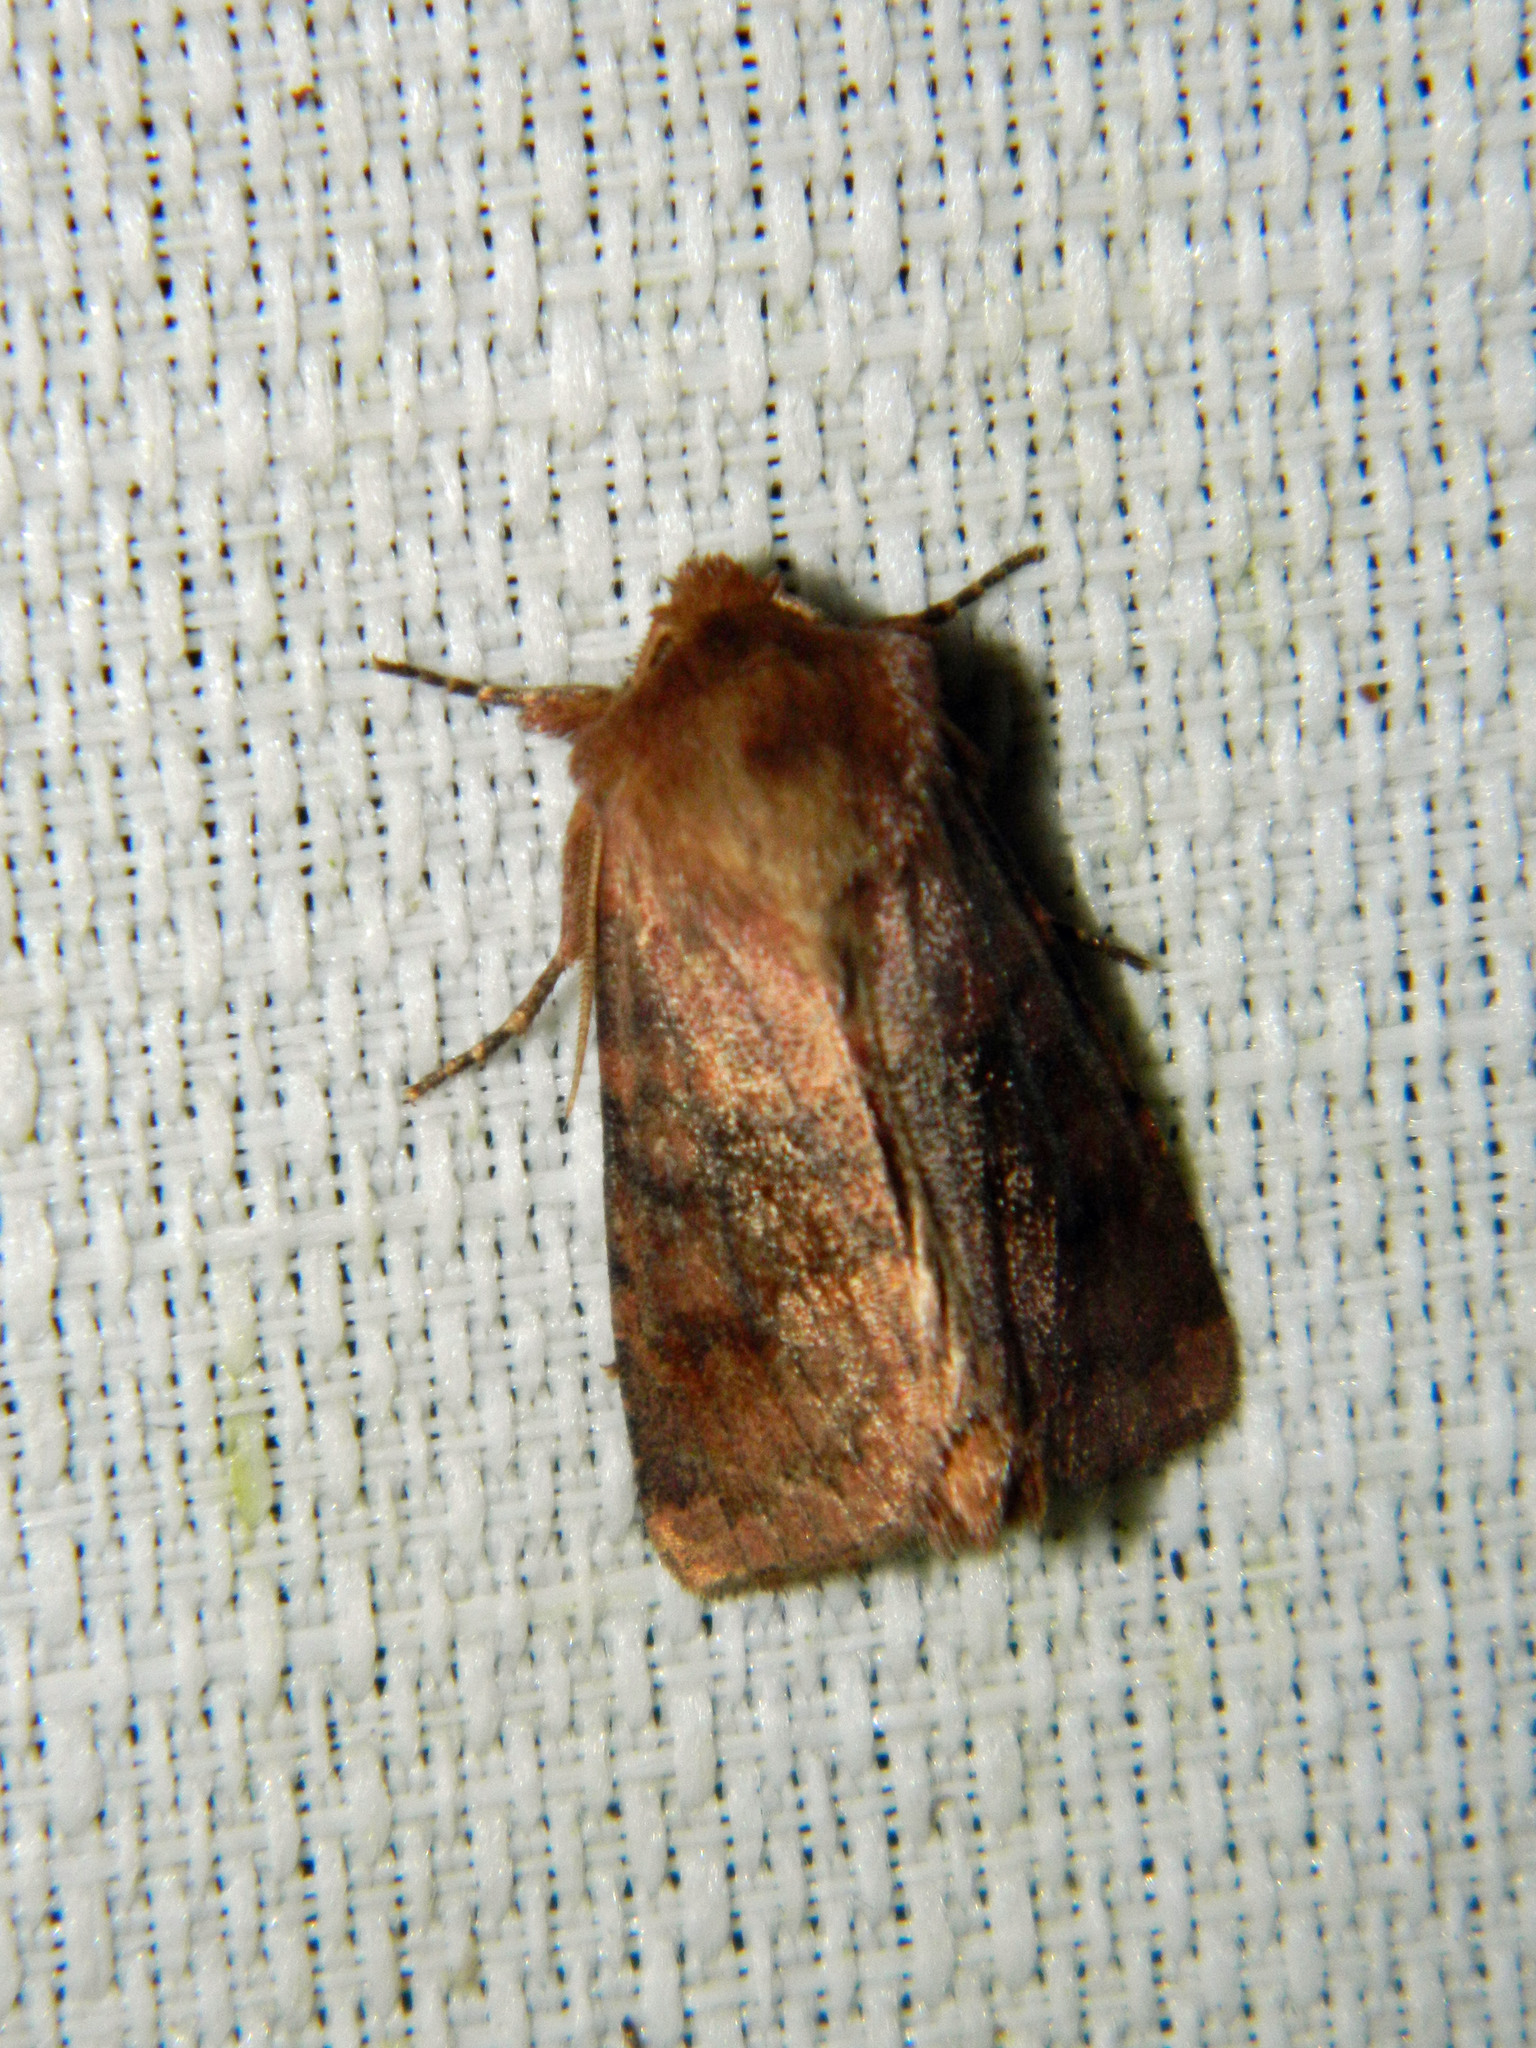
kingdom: Animalia
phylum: Arthropoda
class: Insecta
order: Lepidoptera
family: Noctuidae
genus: Nephelodes
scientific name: Nephelodes minians
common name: Bronzed cutworm
